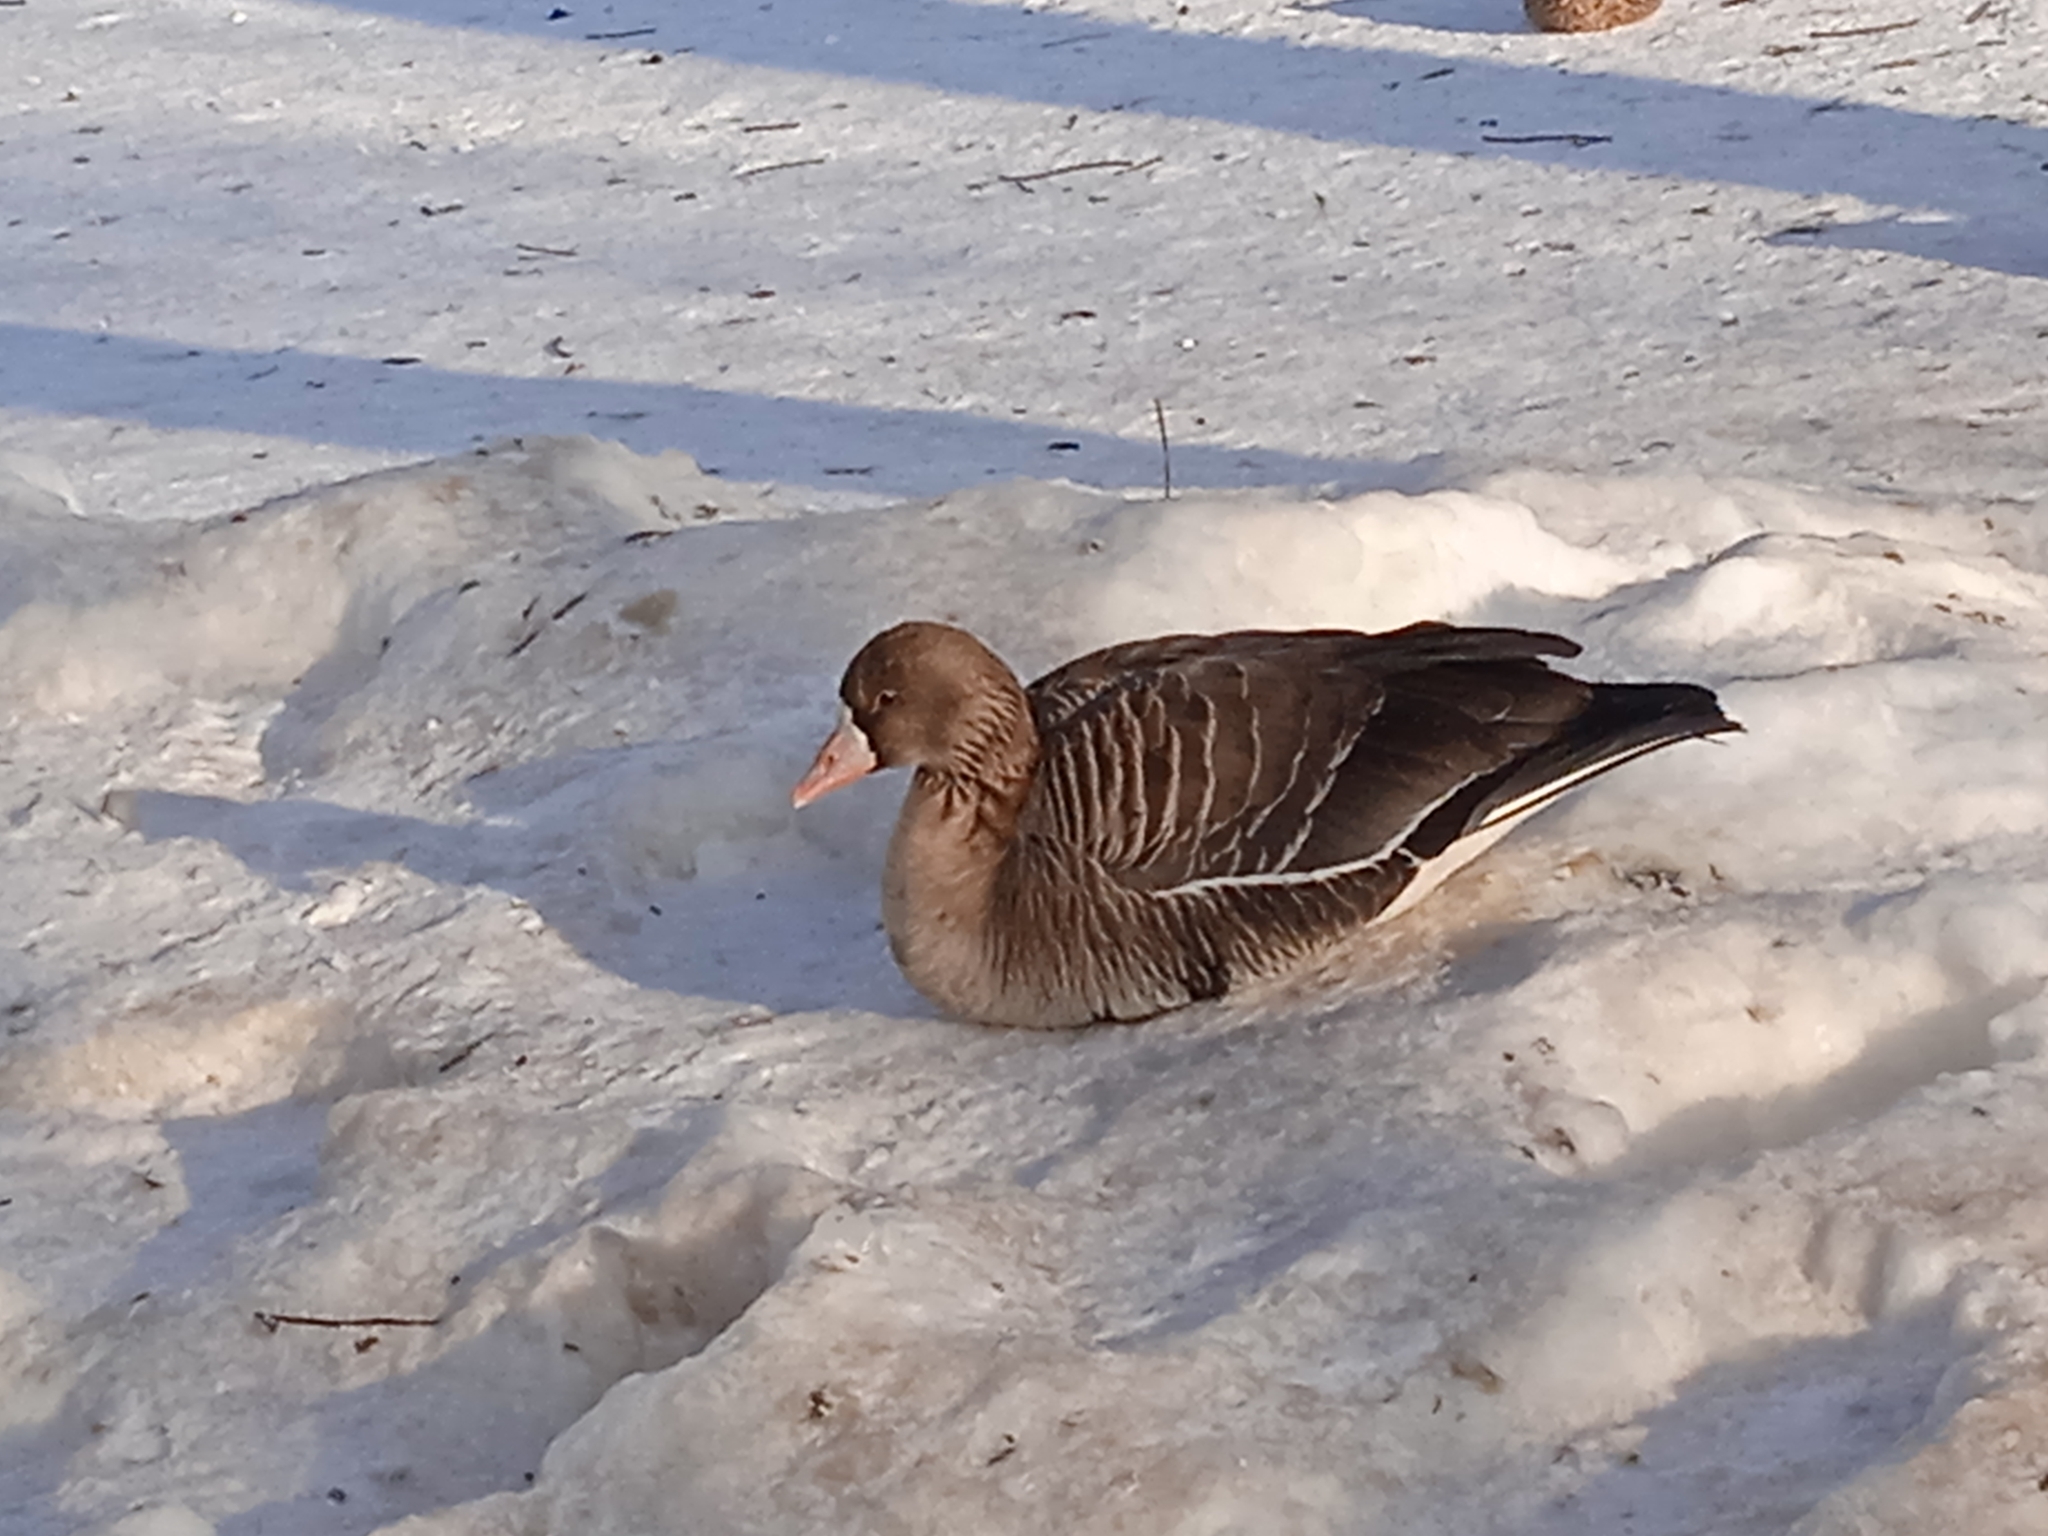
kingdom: Animalia
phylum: Chordata
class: Aves
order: Anseriformes
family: Anatidae
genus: Anser
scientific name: Anser albifrons
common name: Greater white-fronted goose
